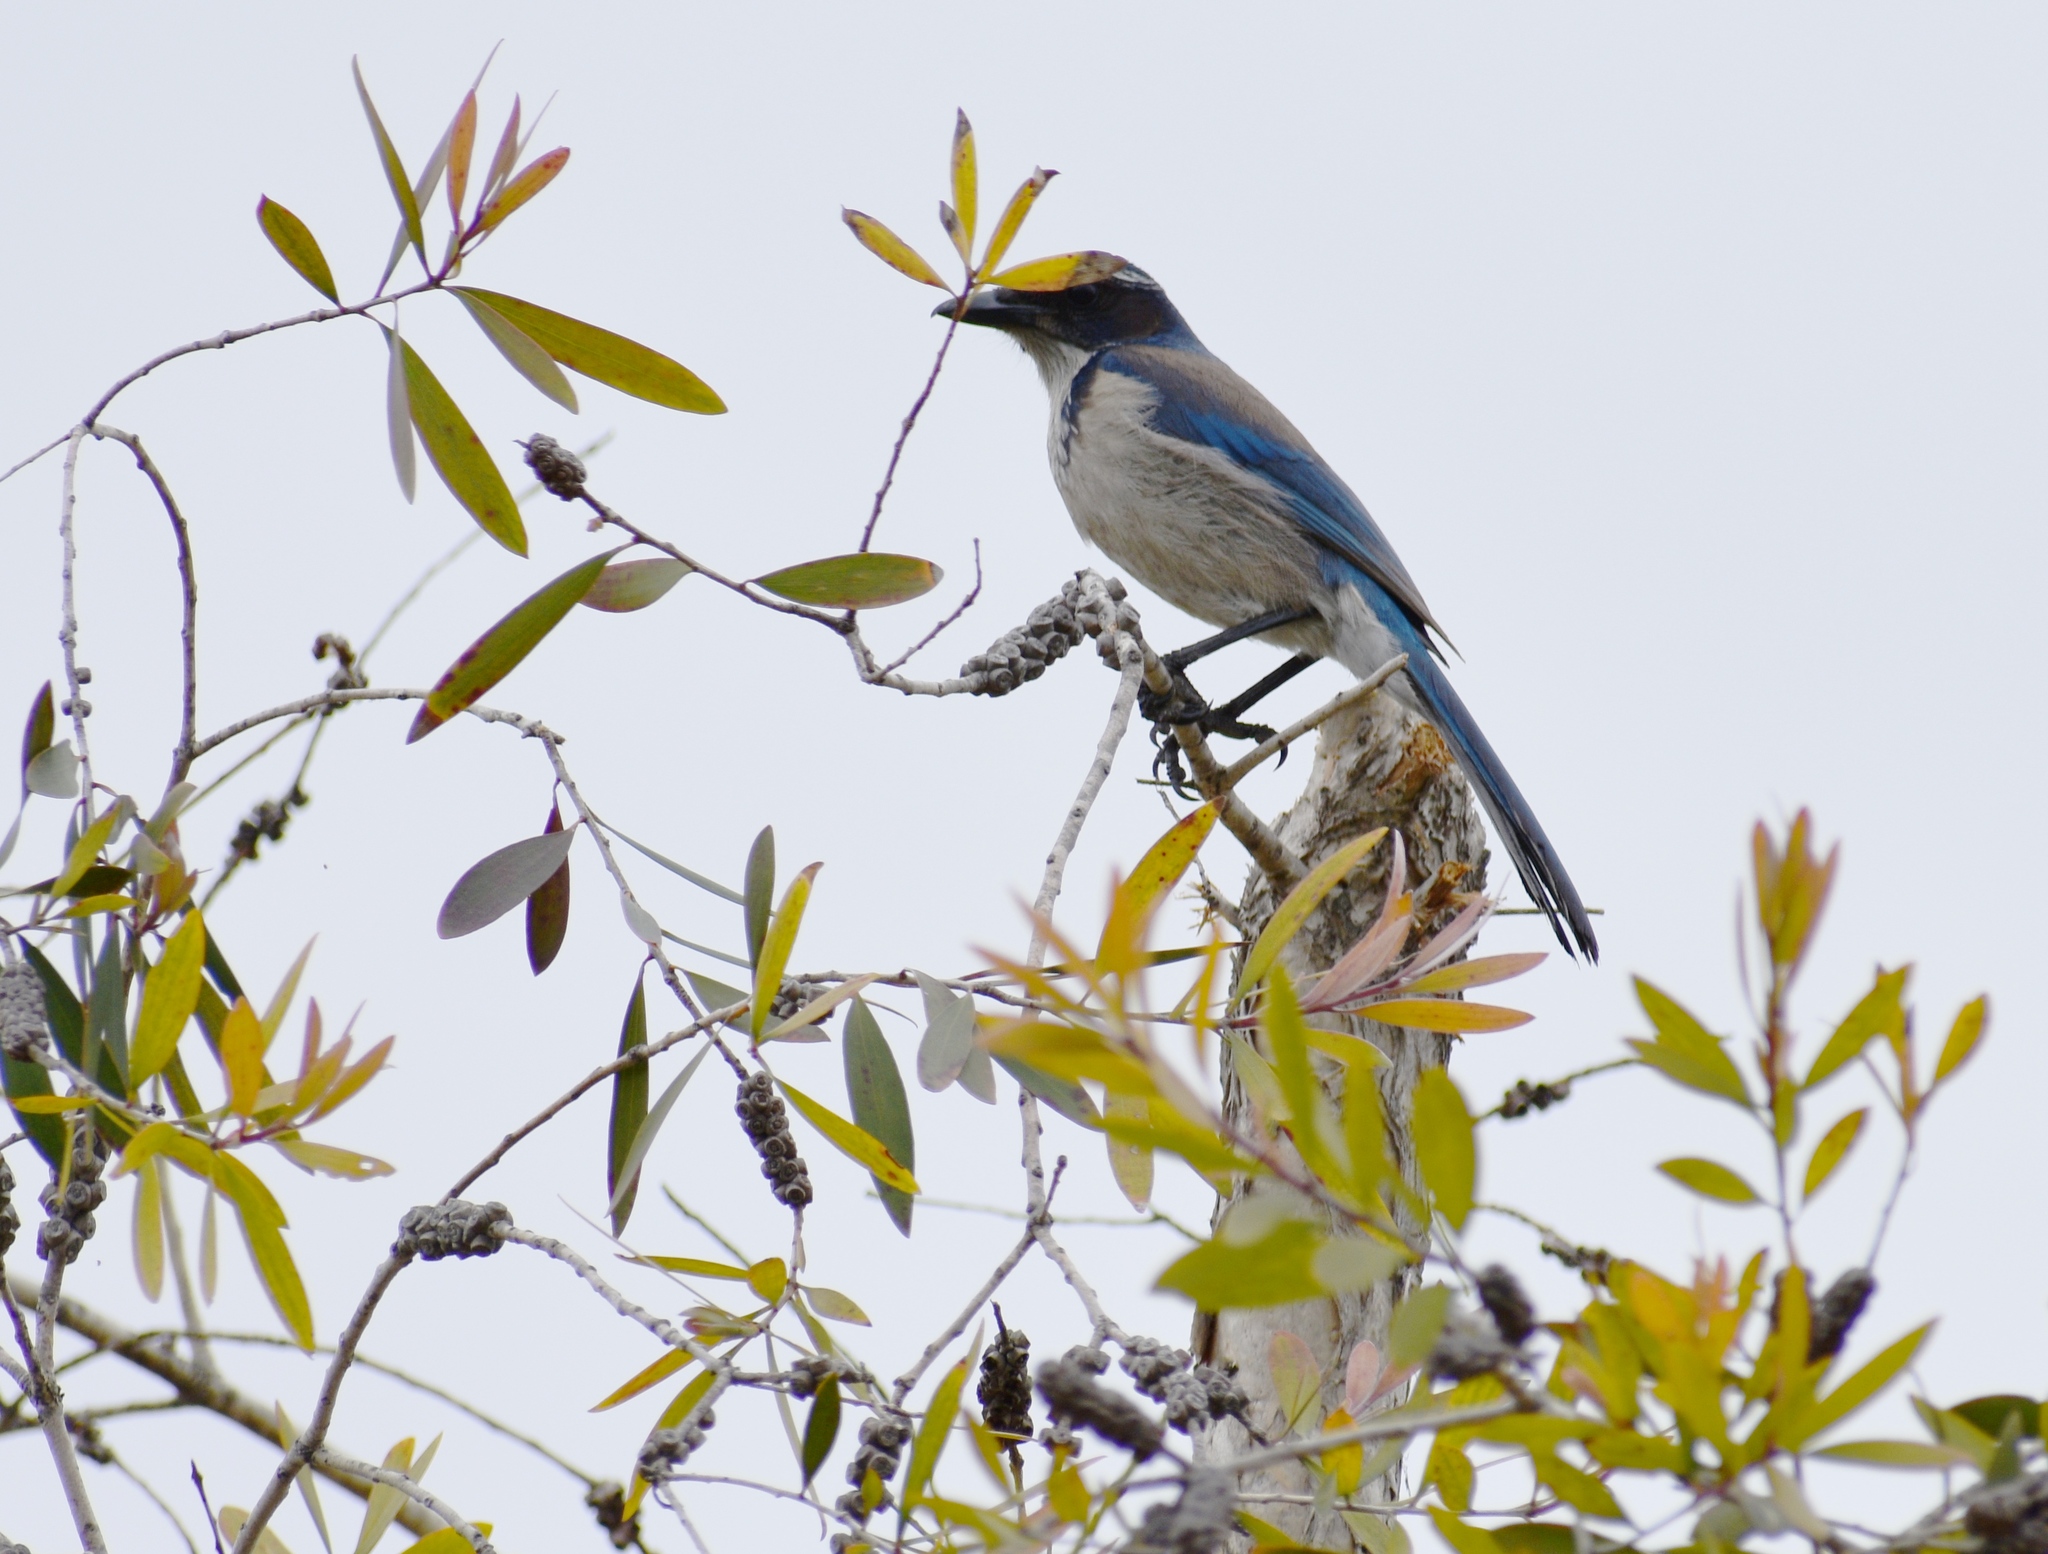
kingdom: Animalia
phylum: Chordata
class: Aves
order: Passeriformes
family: Corvidae
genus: Aphelocoma
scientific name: Aphelocoma californica
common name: California scrub-jay
